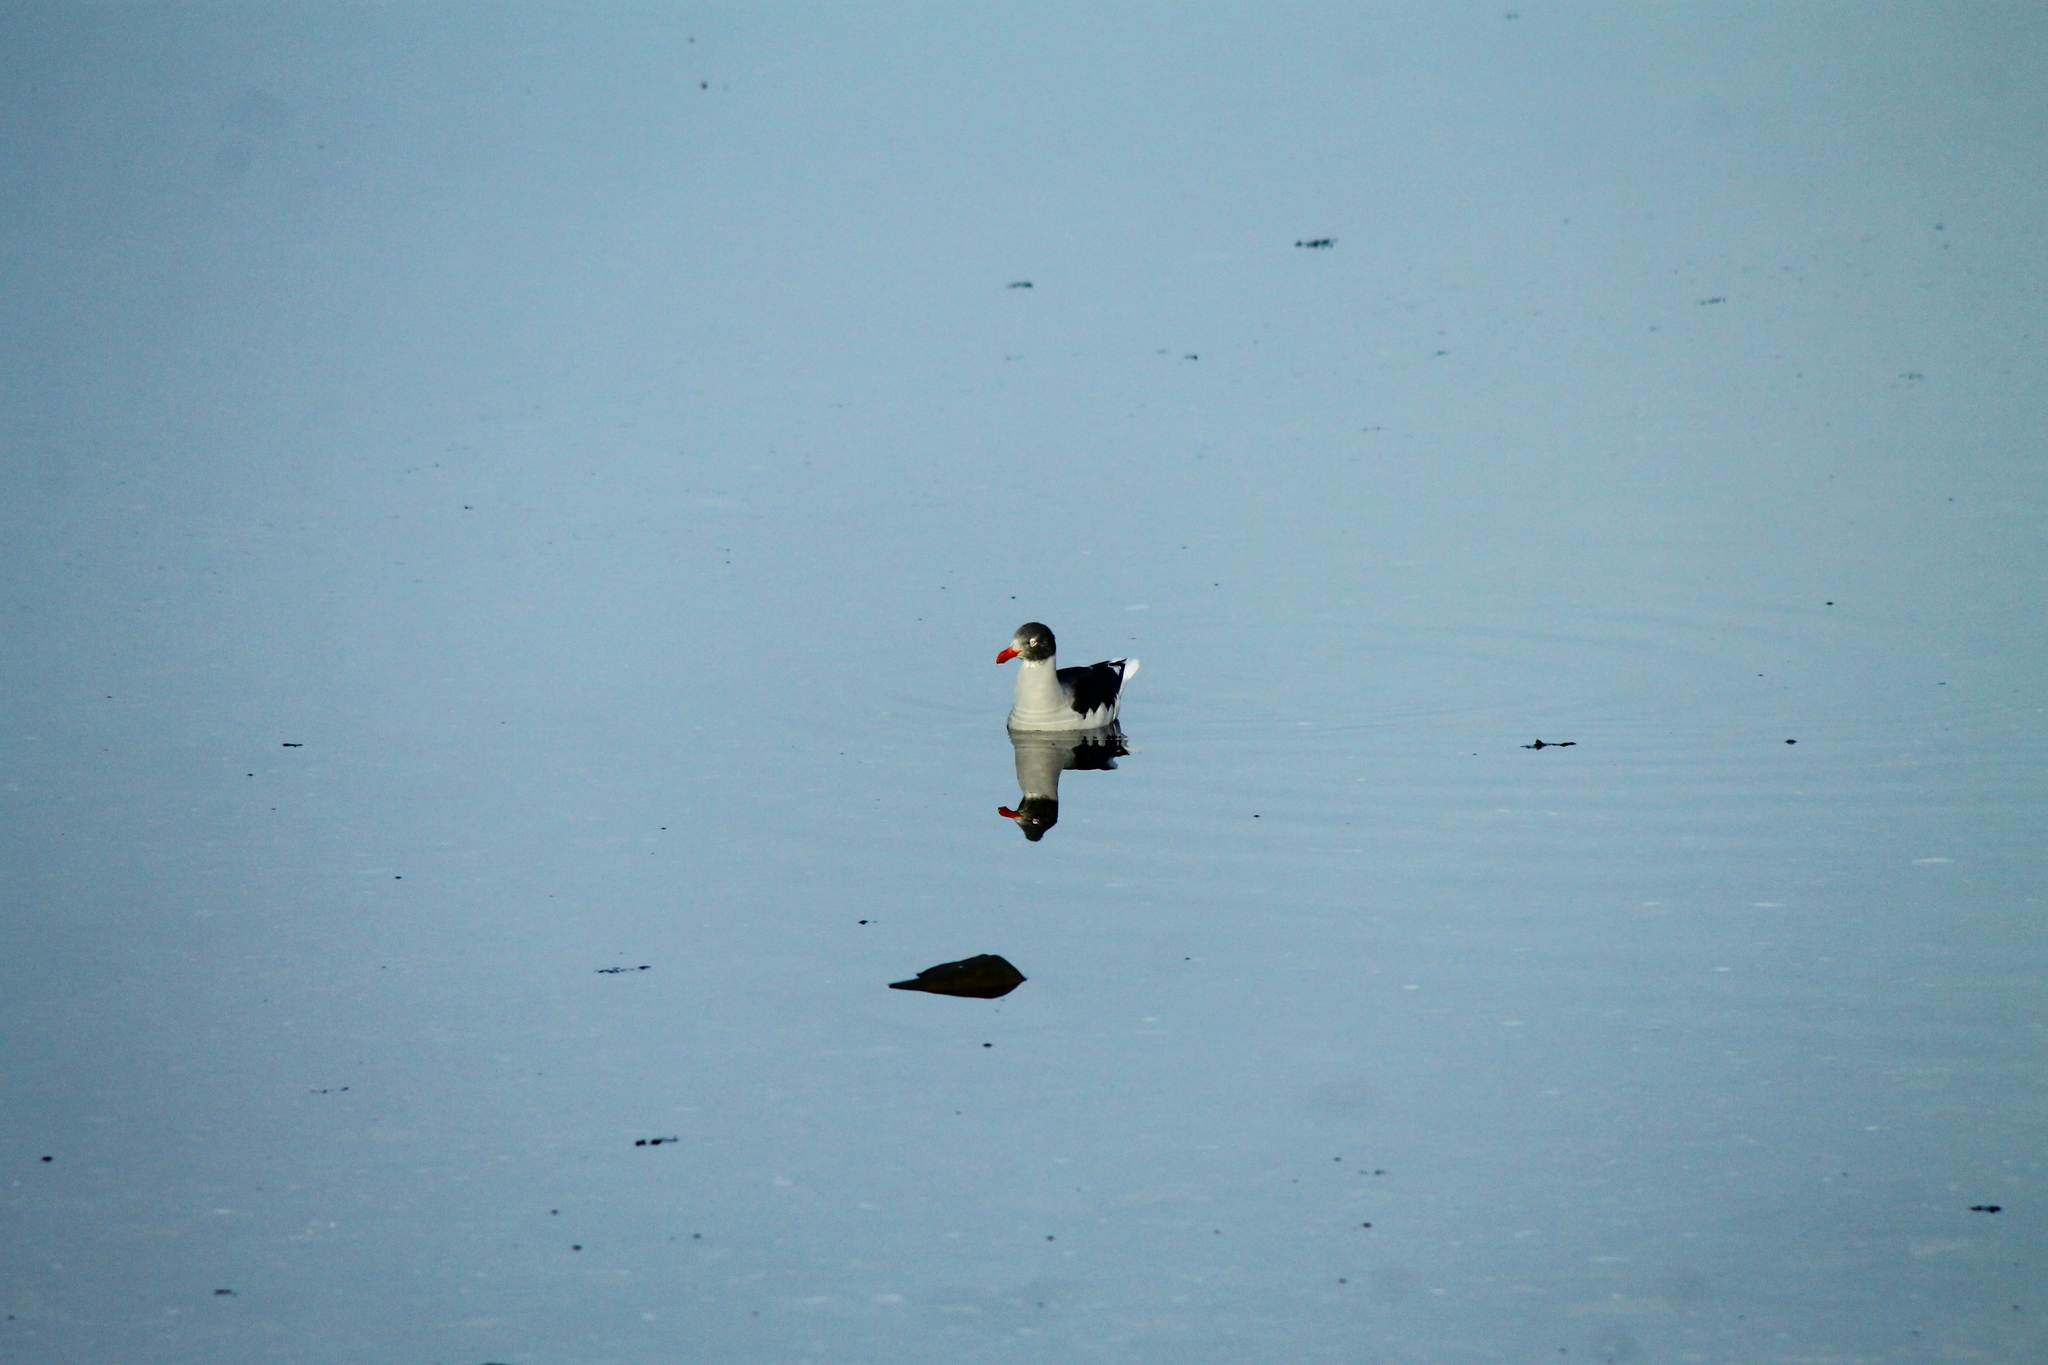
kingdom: Animalia
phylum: Chordata
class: Aves
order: Charadriiformes
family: Laridae
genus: Leucophaeus
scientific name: Leucophaeus scoresbii
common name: Dolphin gull
